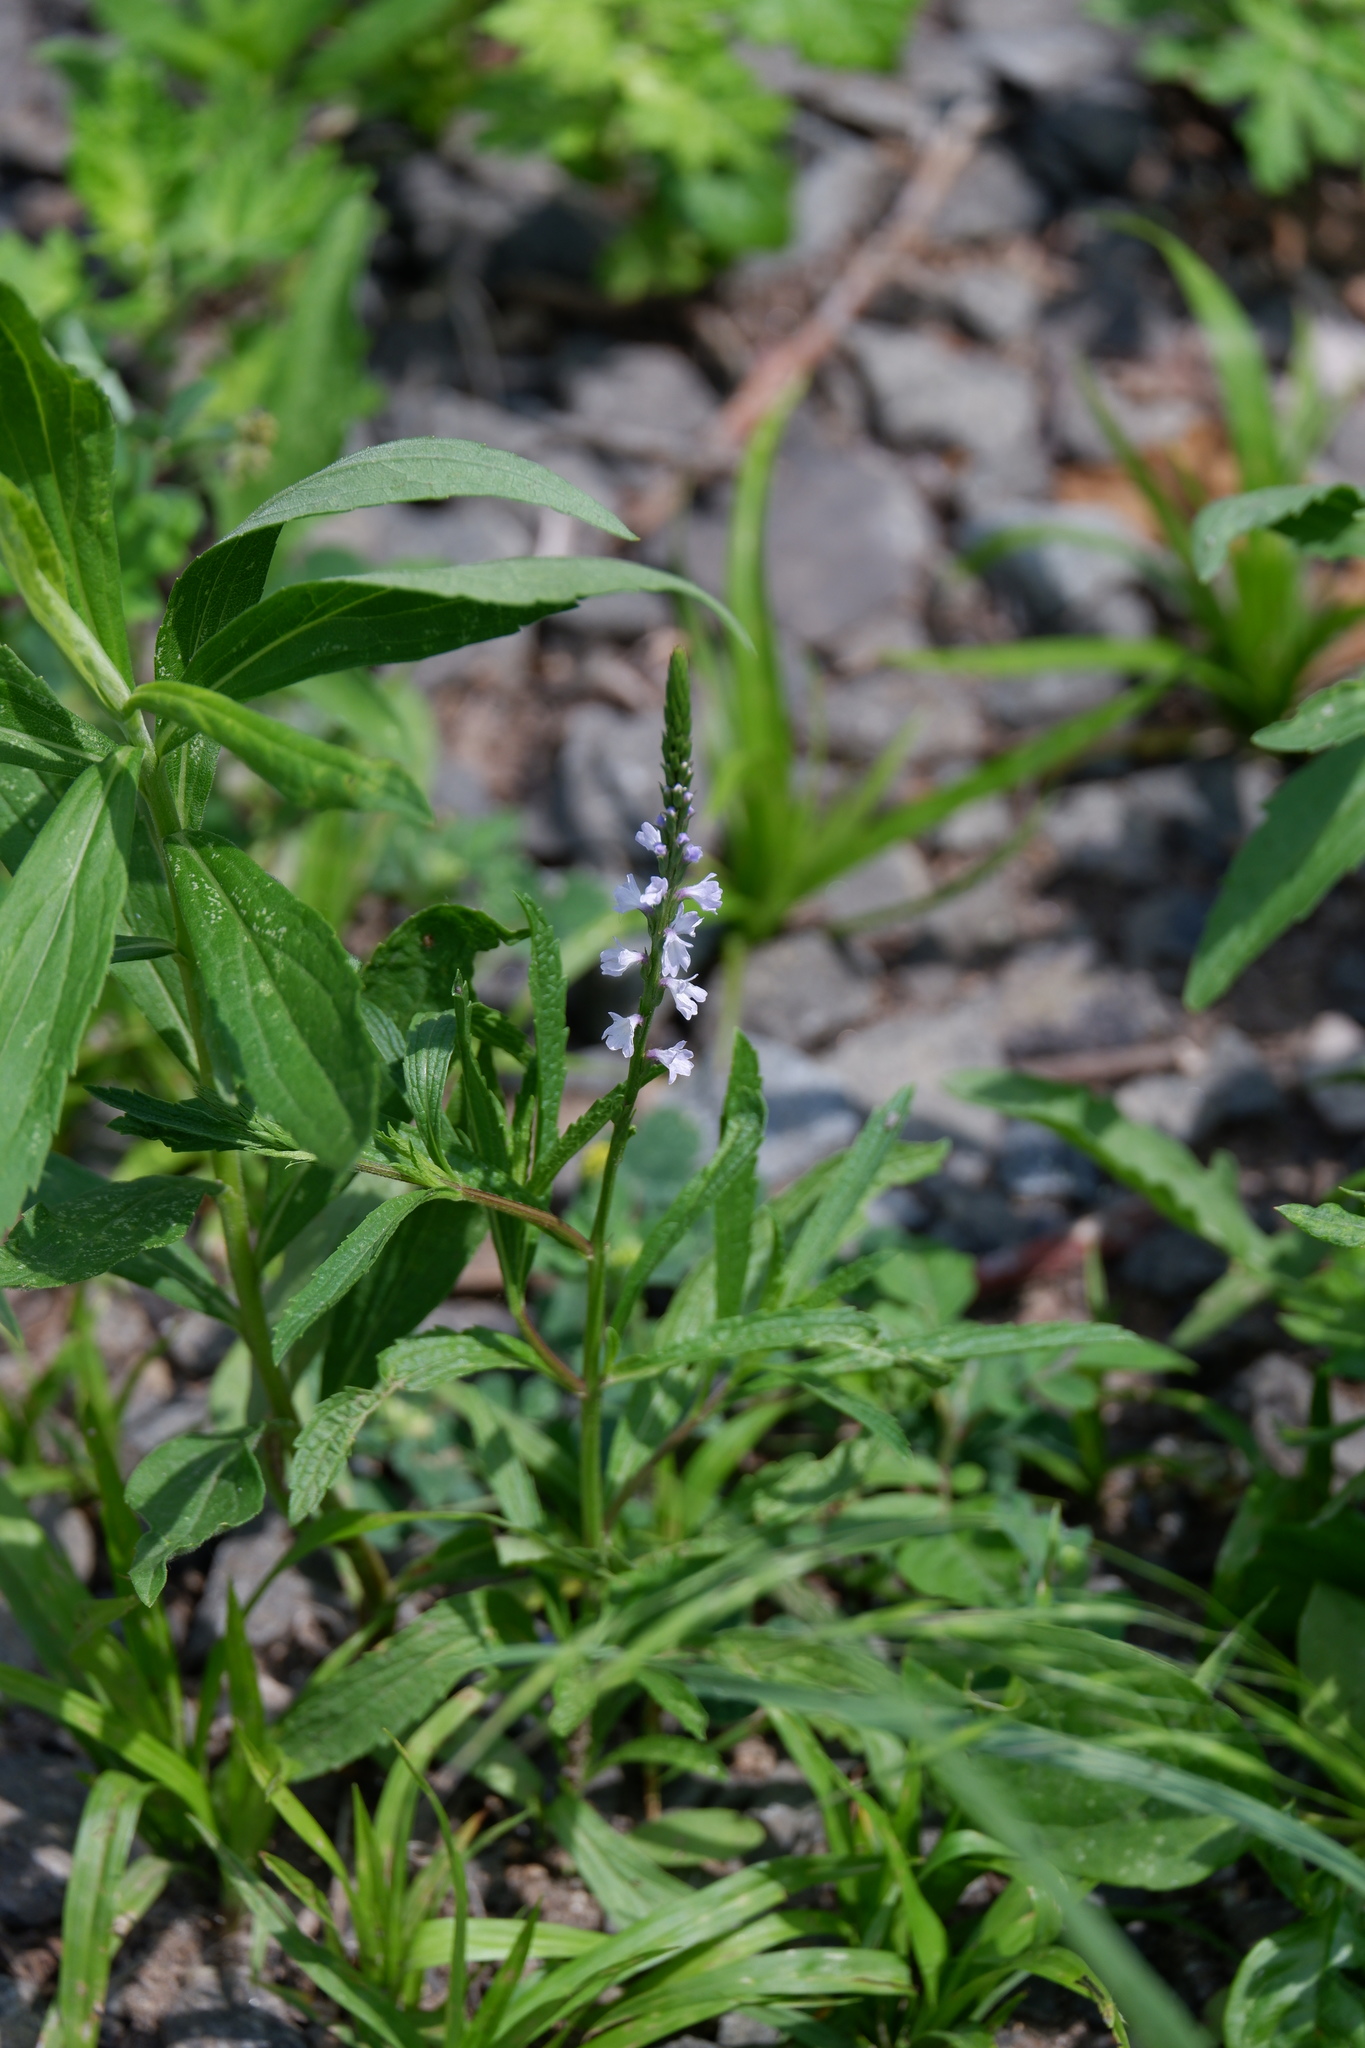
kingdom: Plantae
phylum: Tracheophyta
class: Magnoliopsida
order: Lamiales
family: Verbenaceae
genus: Verbena
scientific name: Verbena simplex
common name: Narrow-leaf vervain
